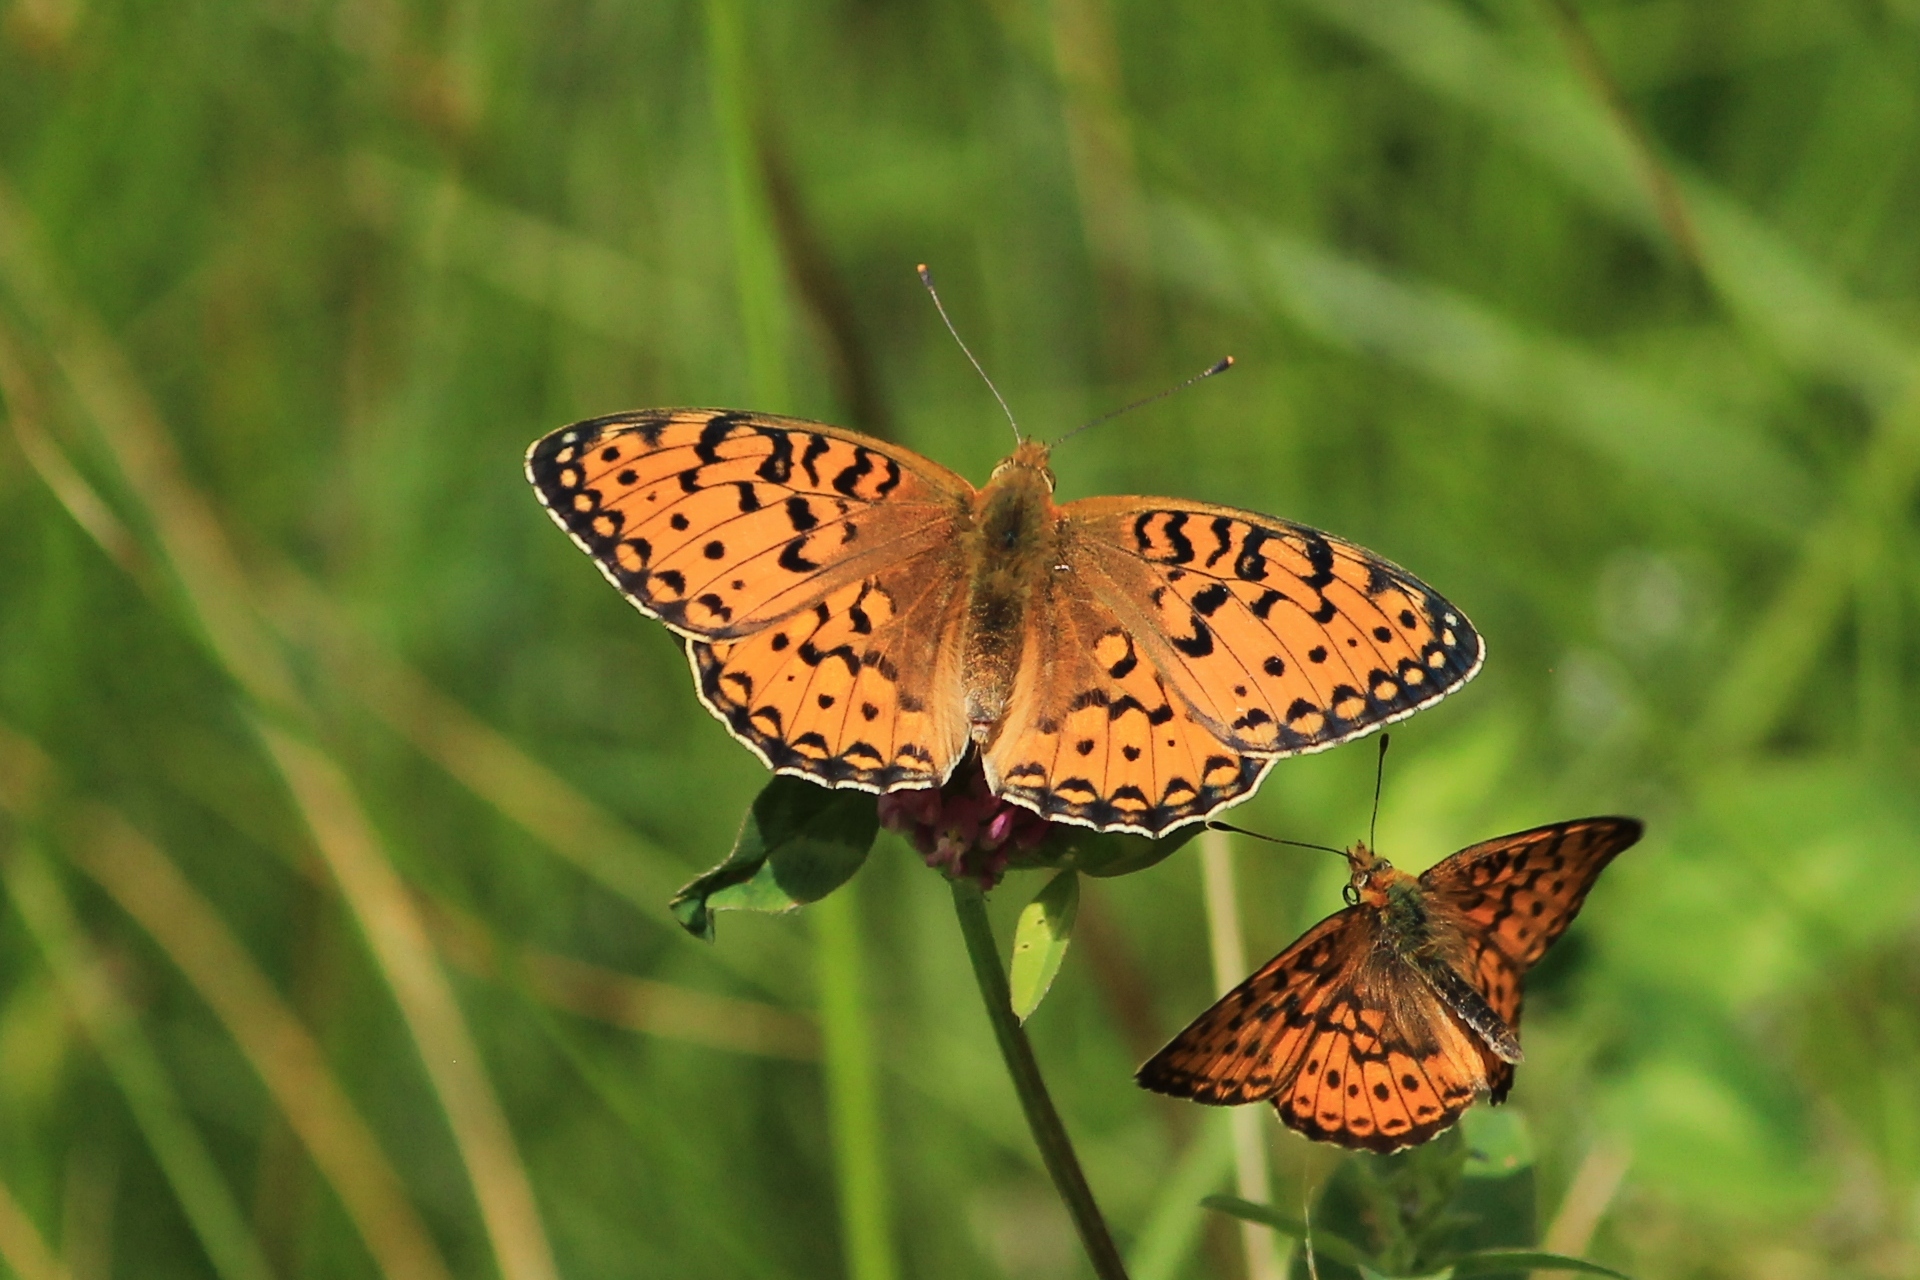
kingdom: Animalia
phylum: Arthropoda
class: Insecta
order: Lepidoptera
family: Nymphalidae
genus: Speyeria
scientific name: Speyeria aglaja
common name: Dark green fritillary
